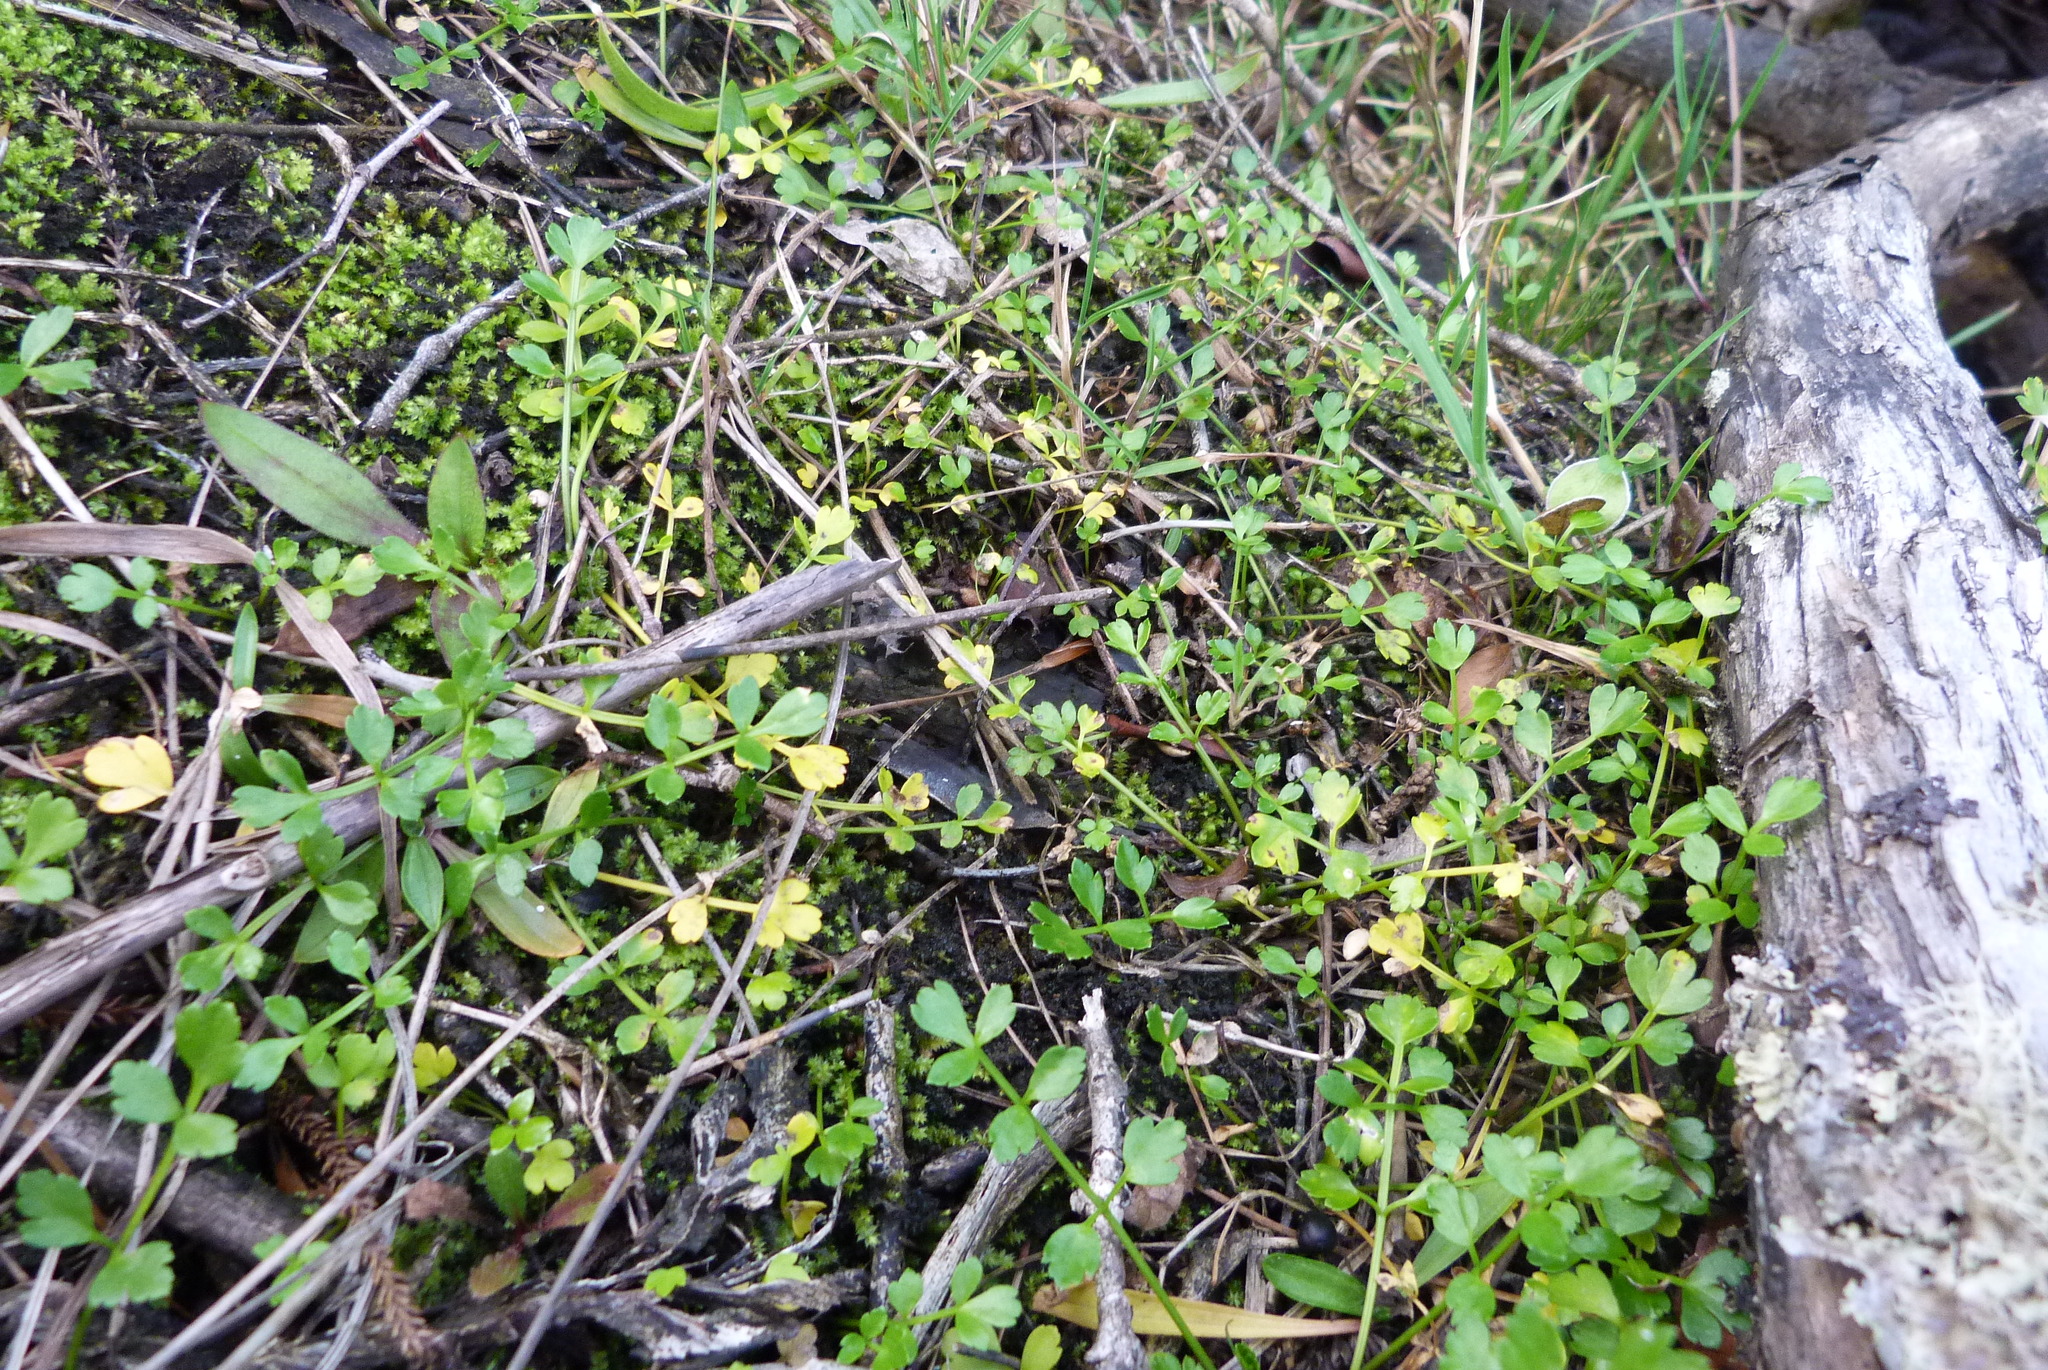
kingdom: Plantae
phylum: Tracheophyta
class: Magnoliopsida
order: Apiales
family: Apiaceae
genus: Apium
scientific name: Apium prostratum
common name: Prostrate marshwort
